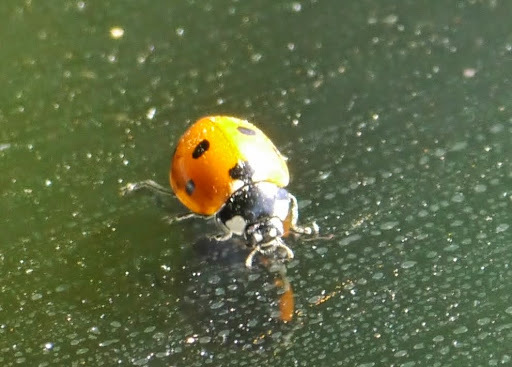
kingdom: Animalia
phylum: Arthropoda
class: Insecta
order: Coleoptera
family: Coccinellidae
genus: Coccinella
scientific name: Coccinella septempunctata
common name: Sevenspotted lady beetle
